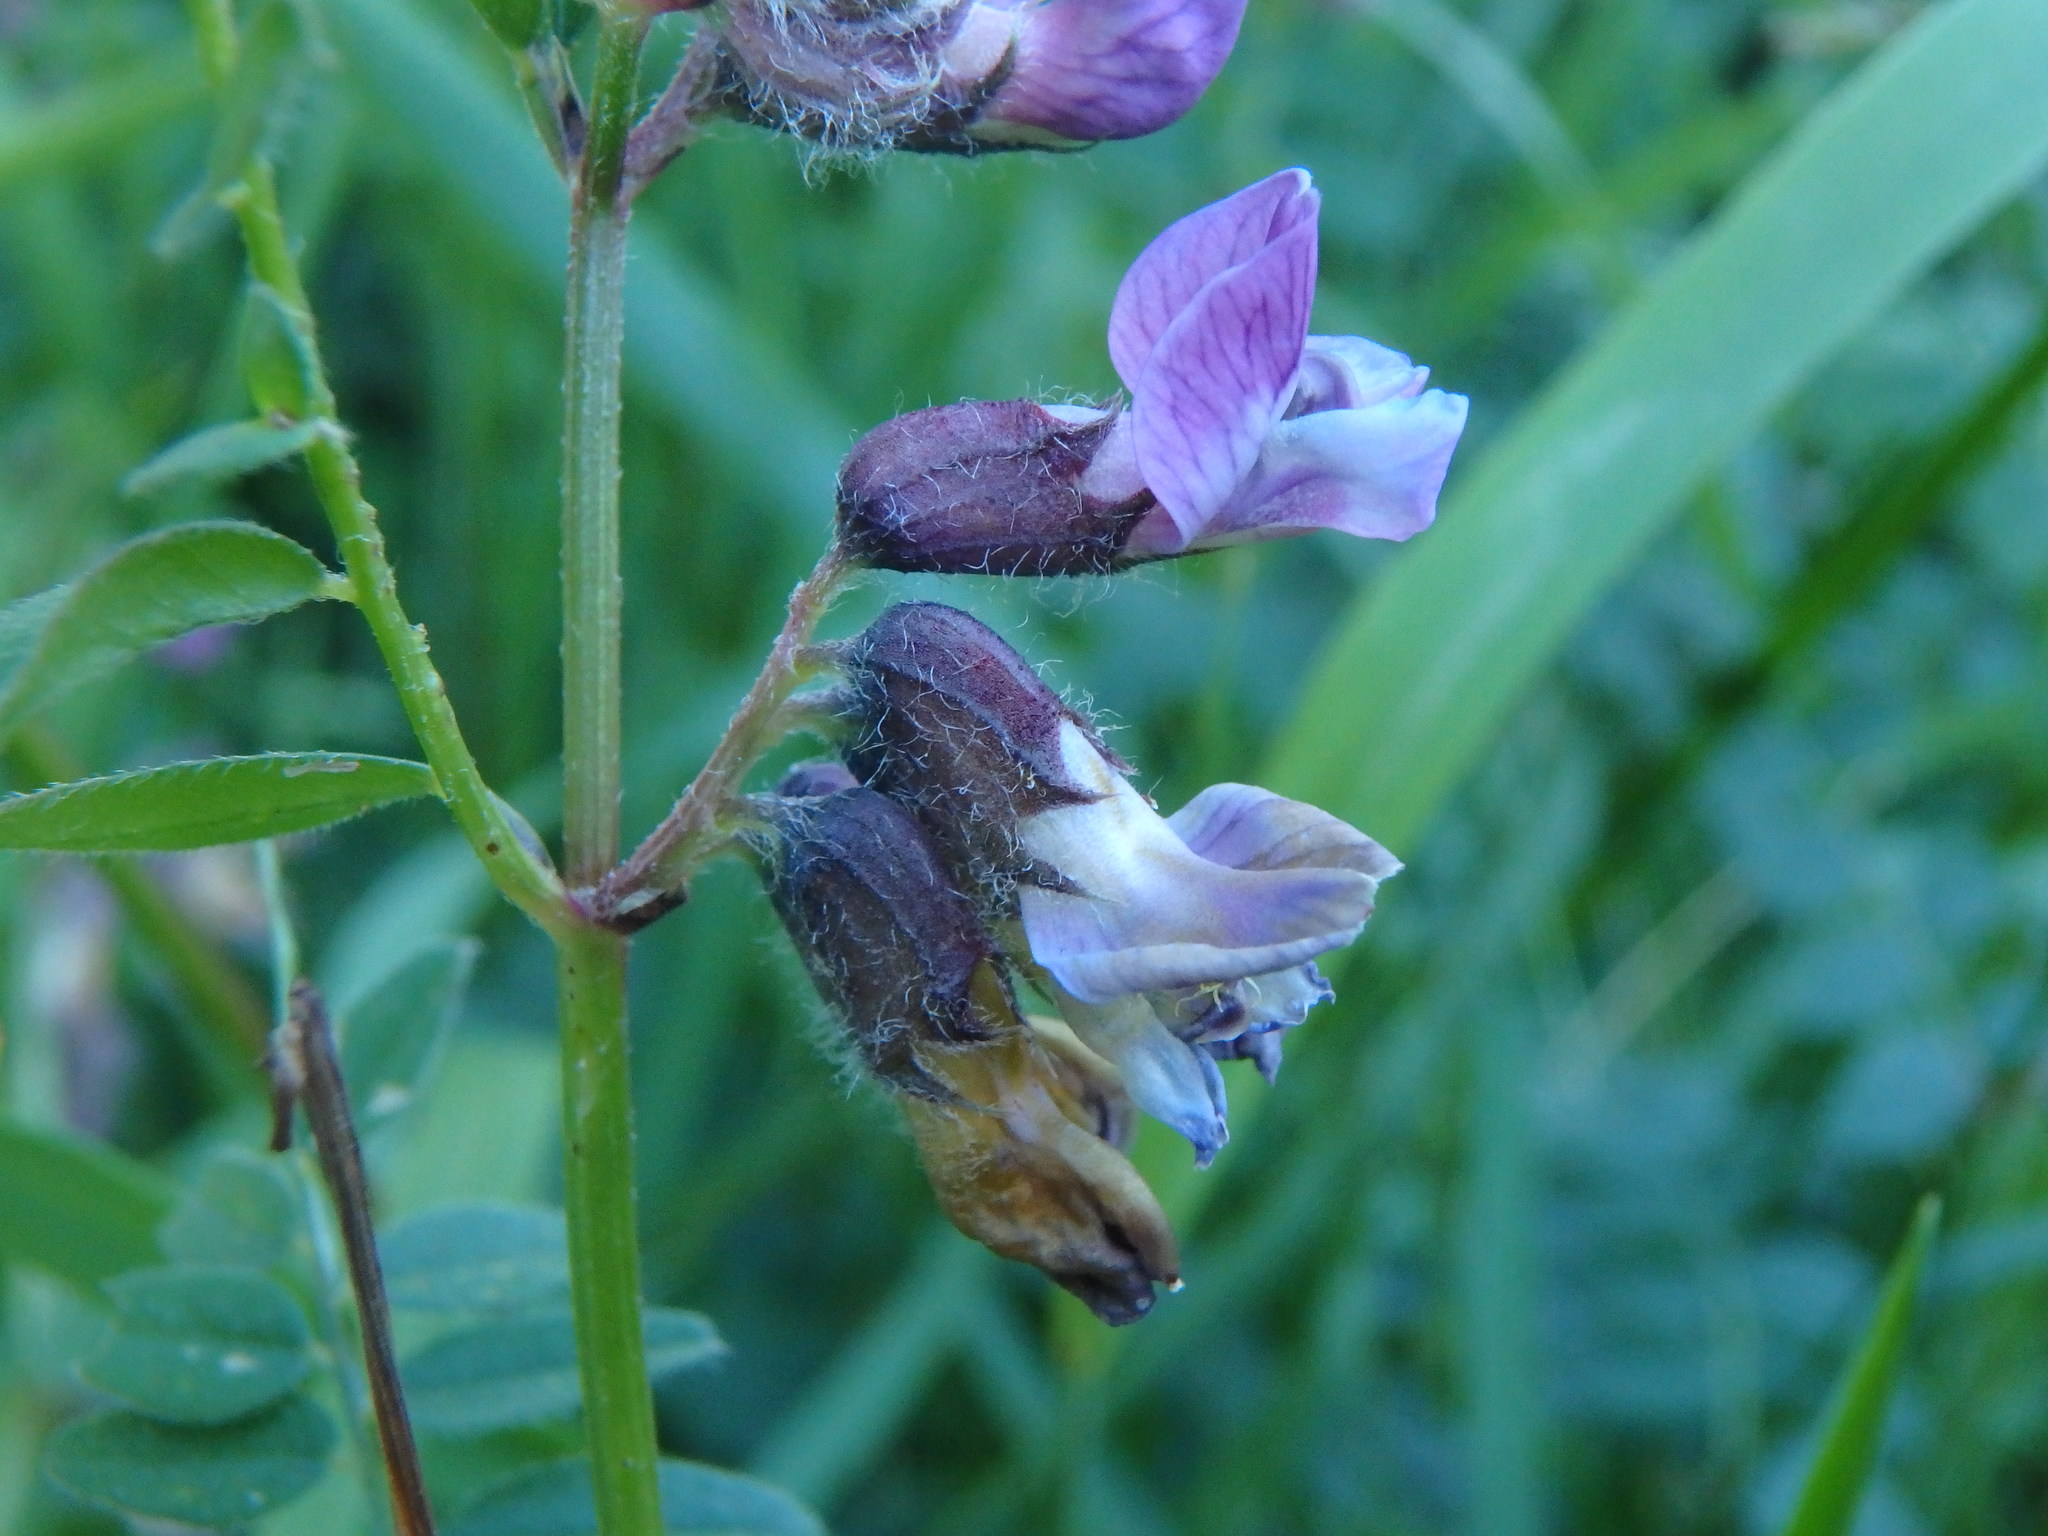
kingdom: Plantae
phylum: Tracheophyta
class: Magnoliopsida
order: Fabales
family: Fabaceae
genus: Vicia
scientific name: Vicia sepium
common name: Bush vetch
